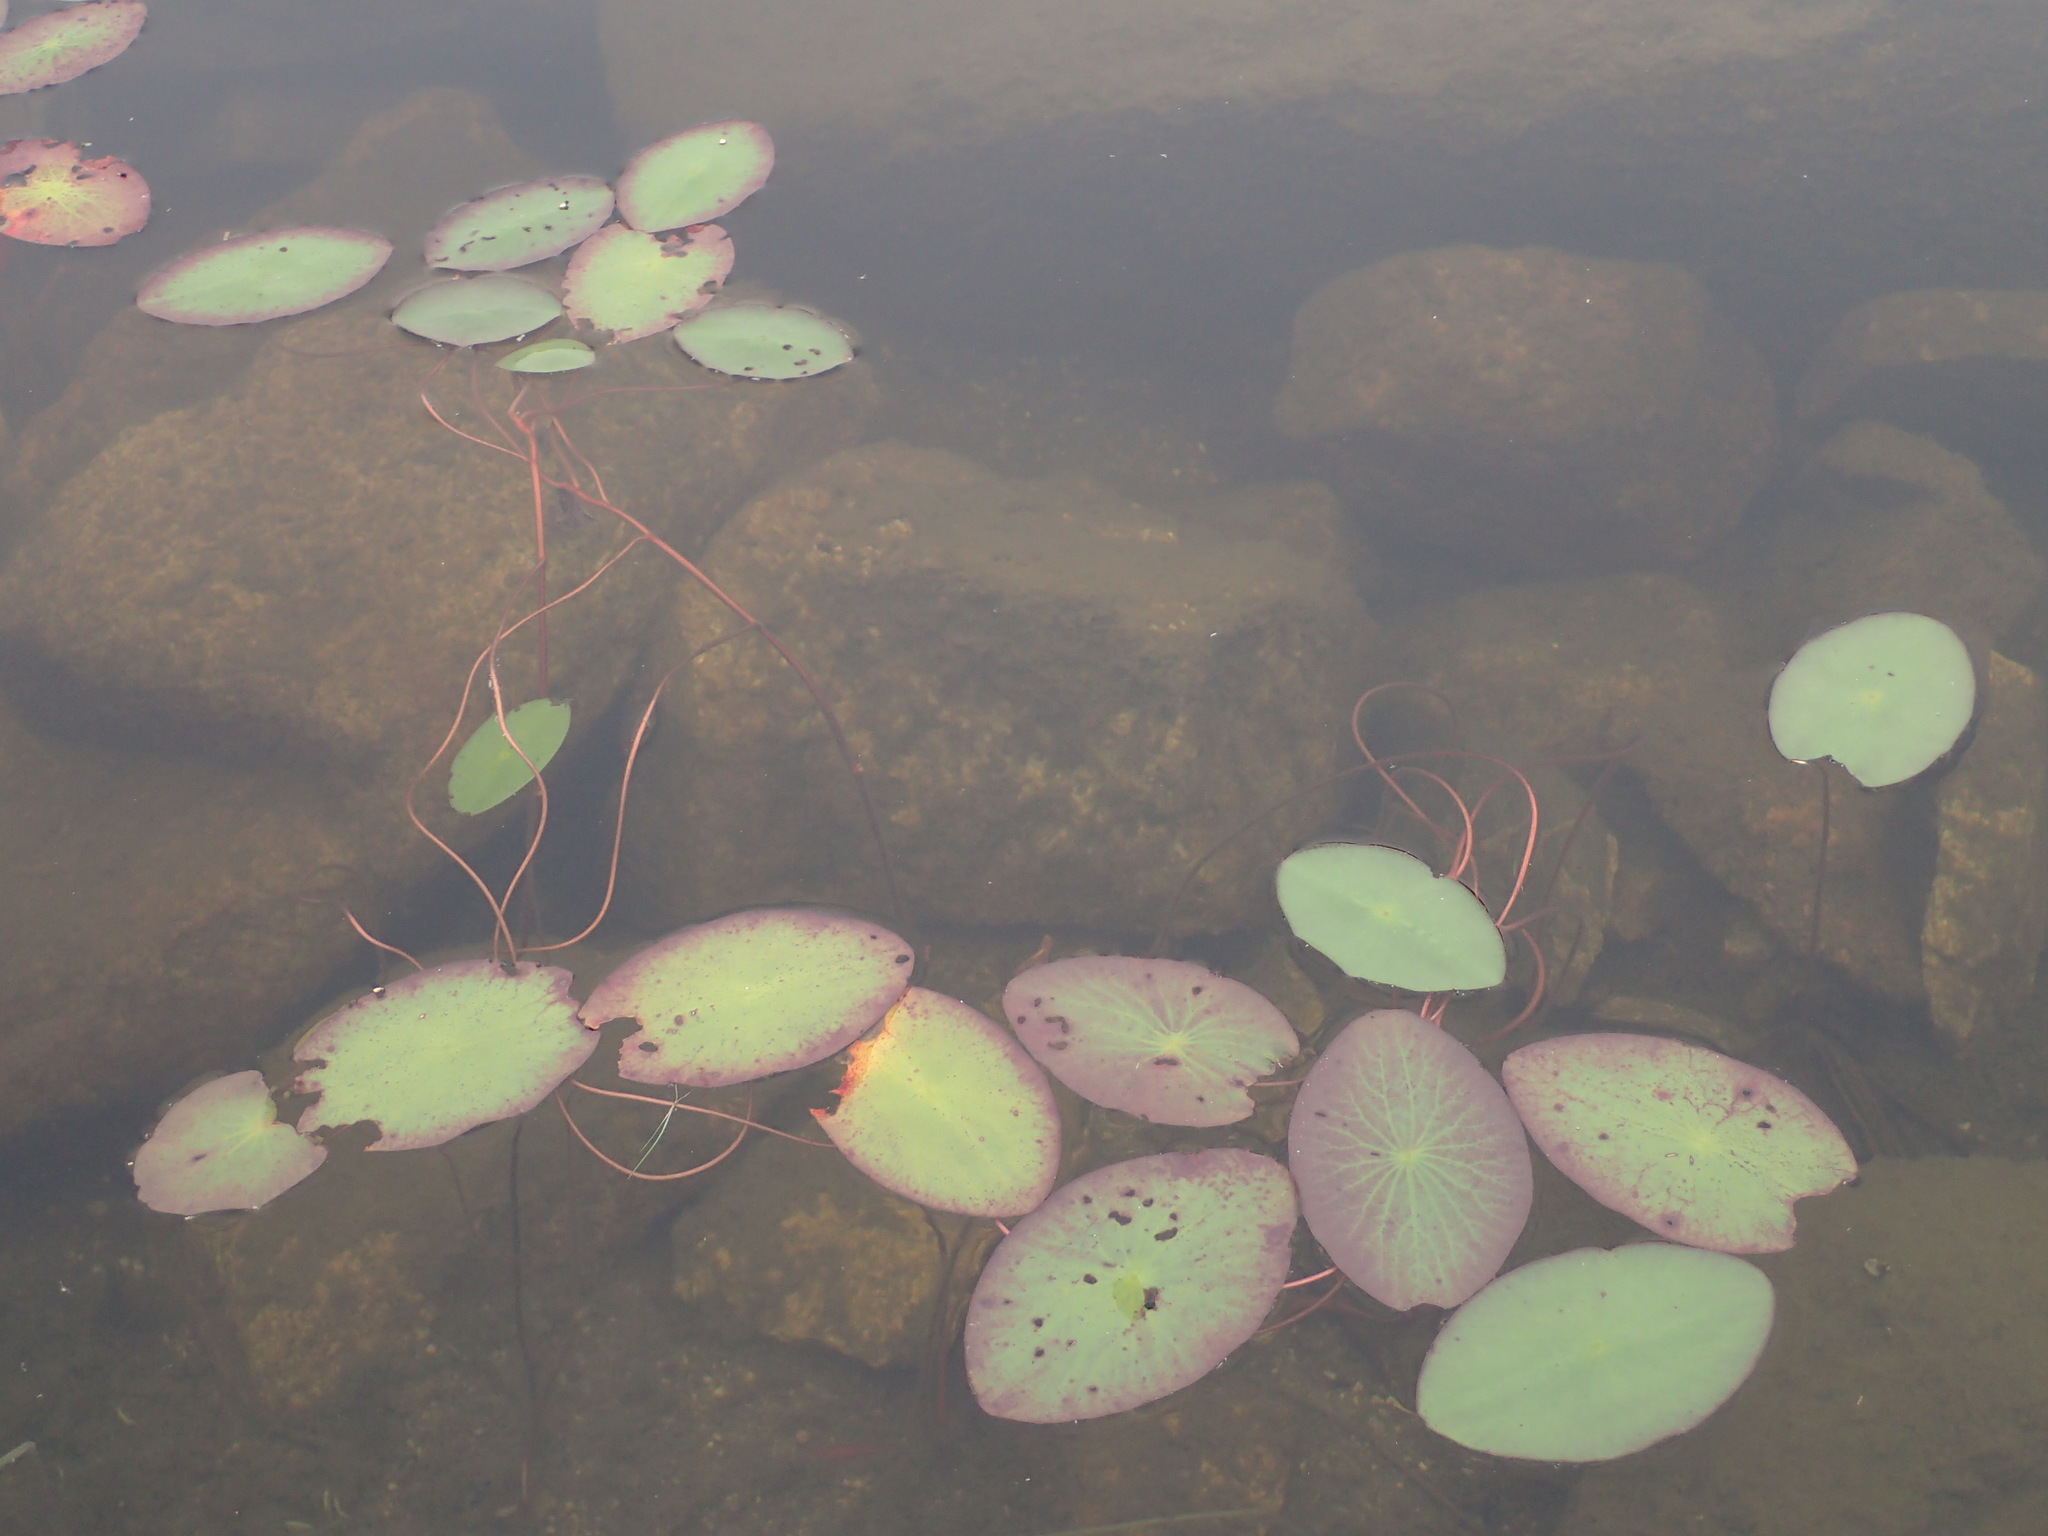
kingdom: Plantae
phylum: Tracheophyta
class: Magnoliopsida
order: Nymphaeales
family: Cabombaceae
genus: Brasenia
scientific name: Brasenia schreberi
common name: Water-shield
